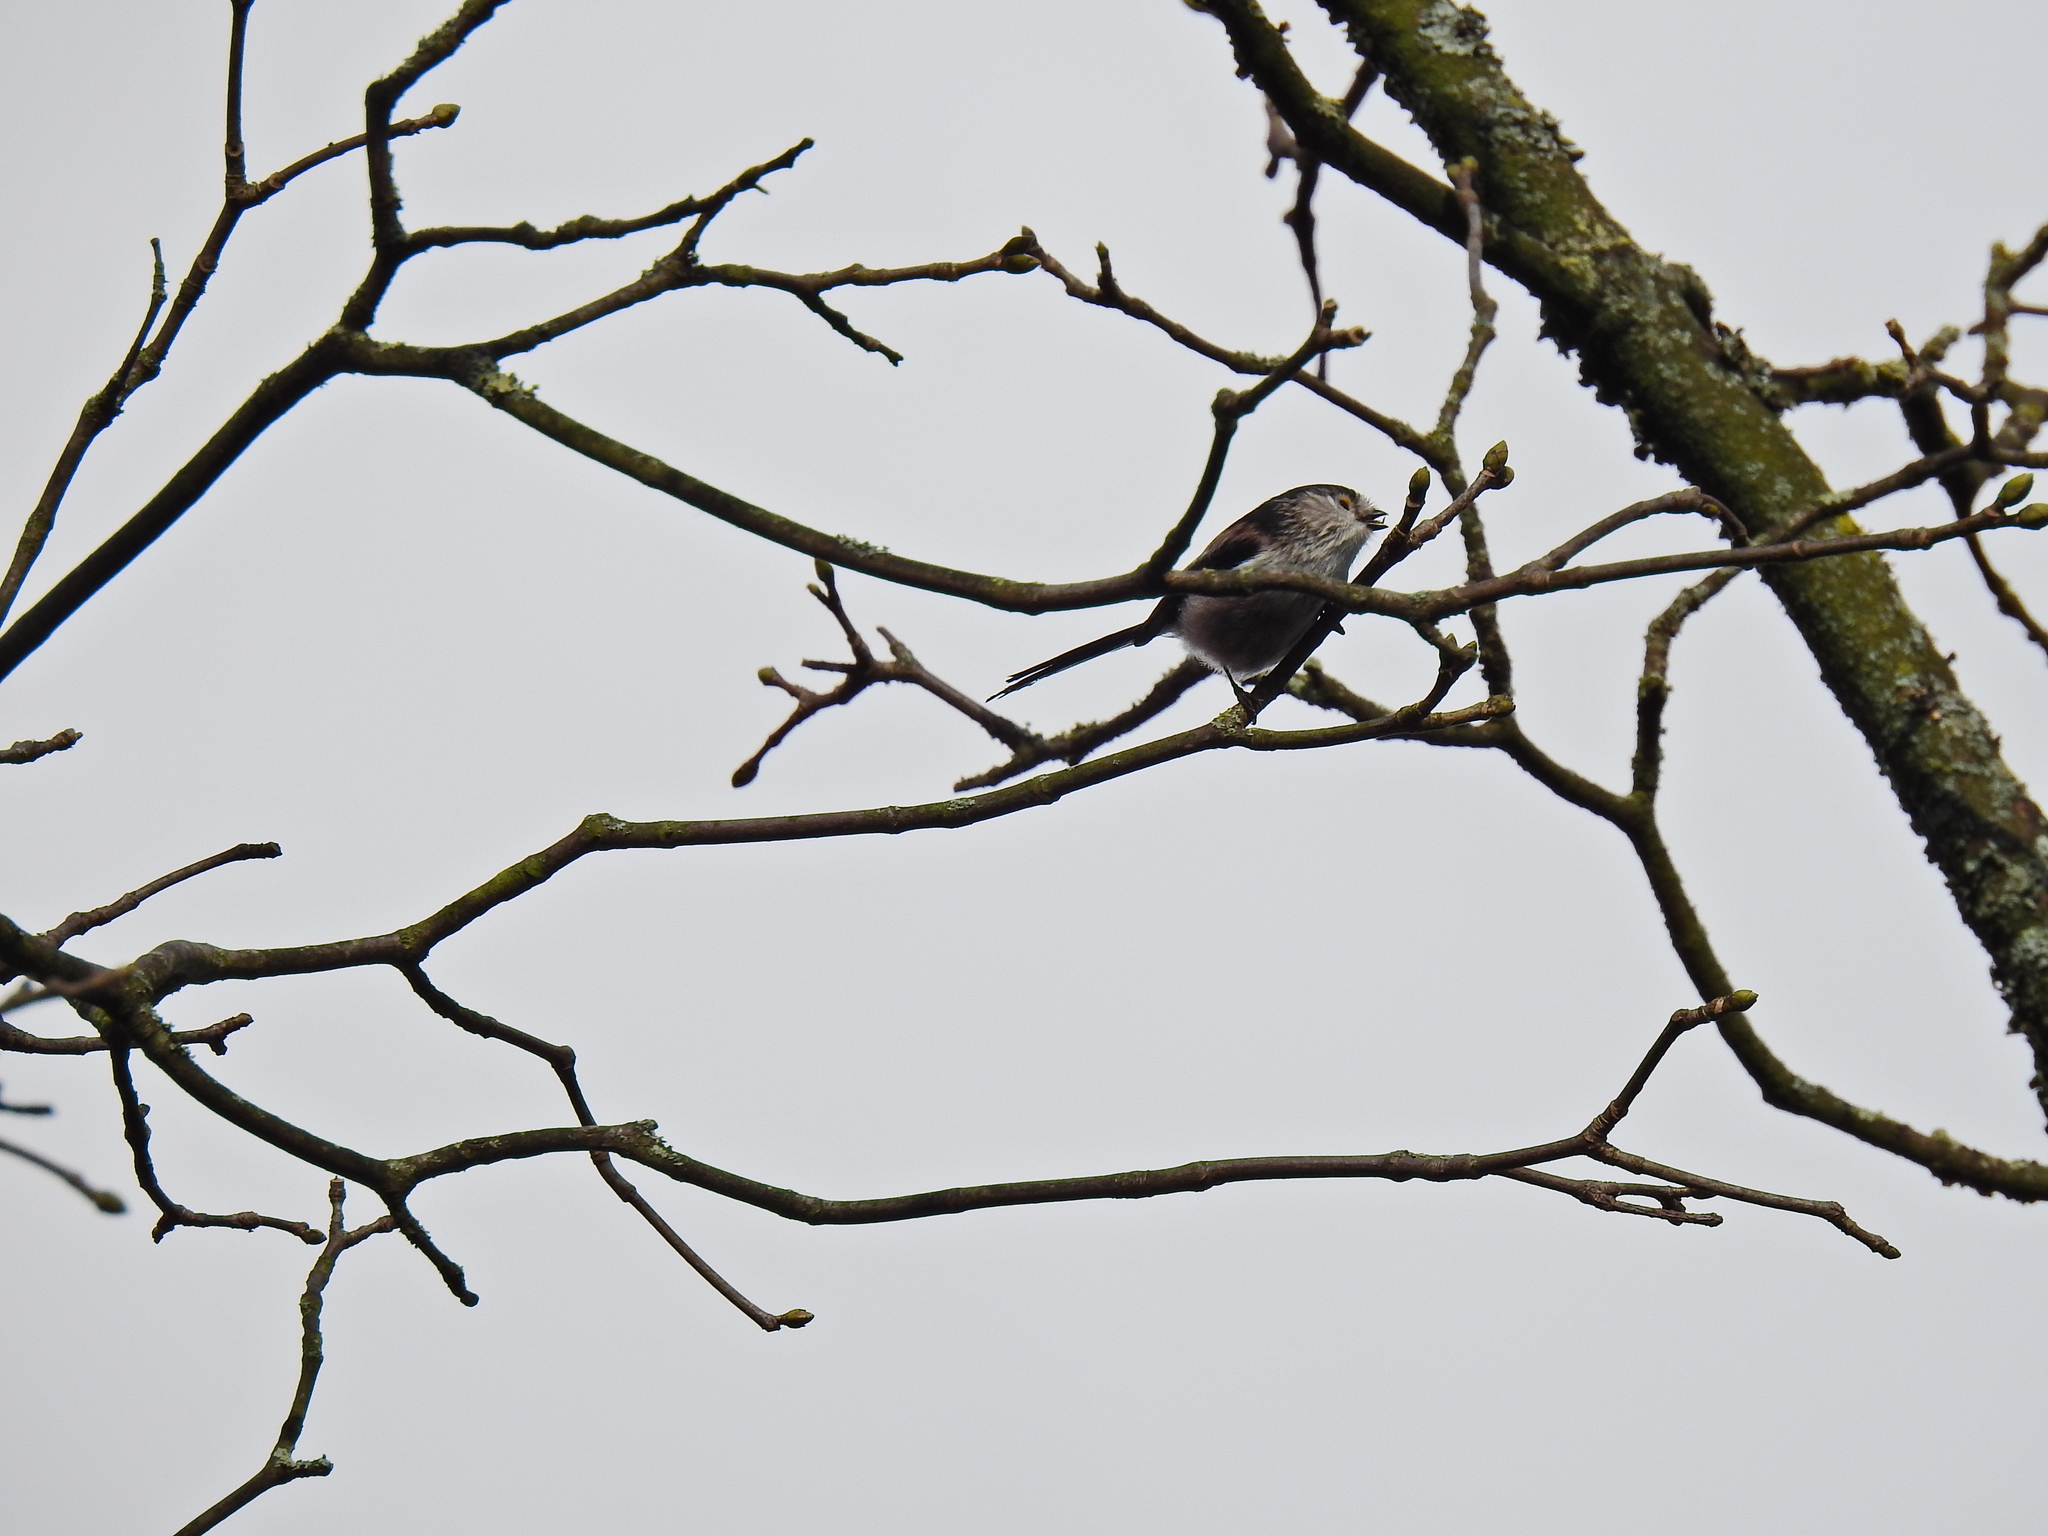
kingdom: Animalia
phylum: Chordata
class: Aves
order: Passeriformes
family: Aegithalidae
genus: Aegithalos
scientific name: Aegithalos caudatus
